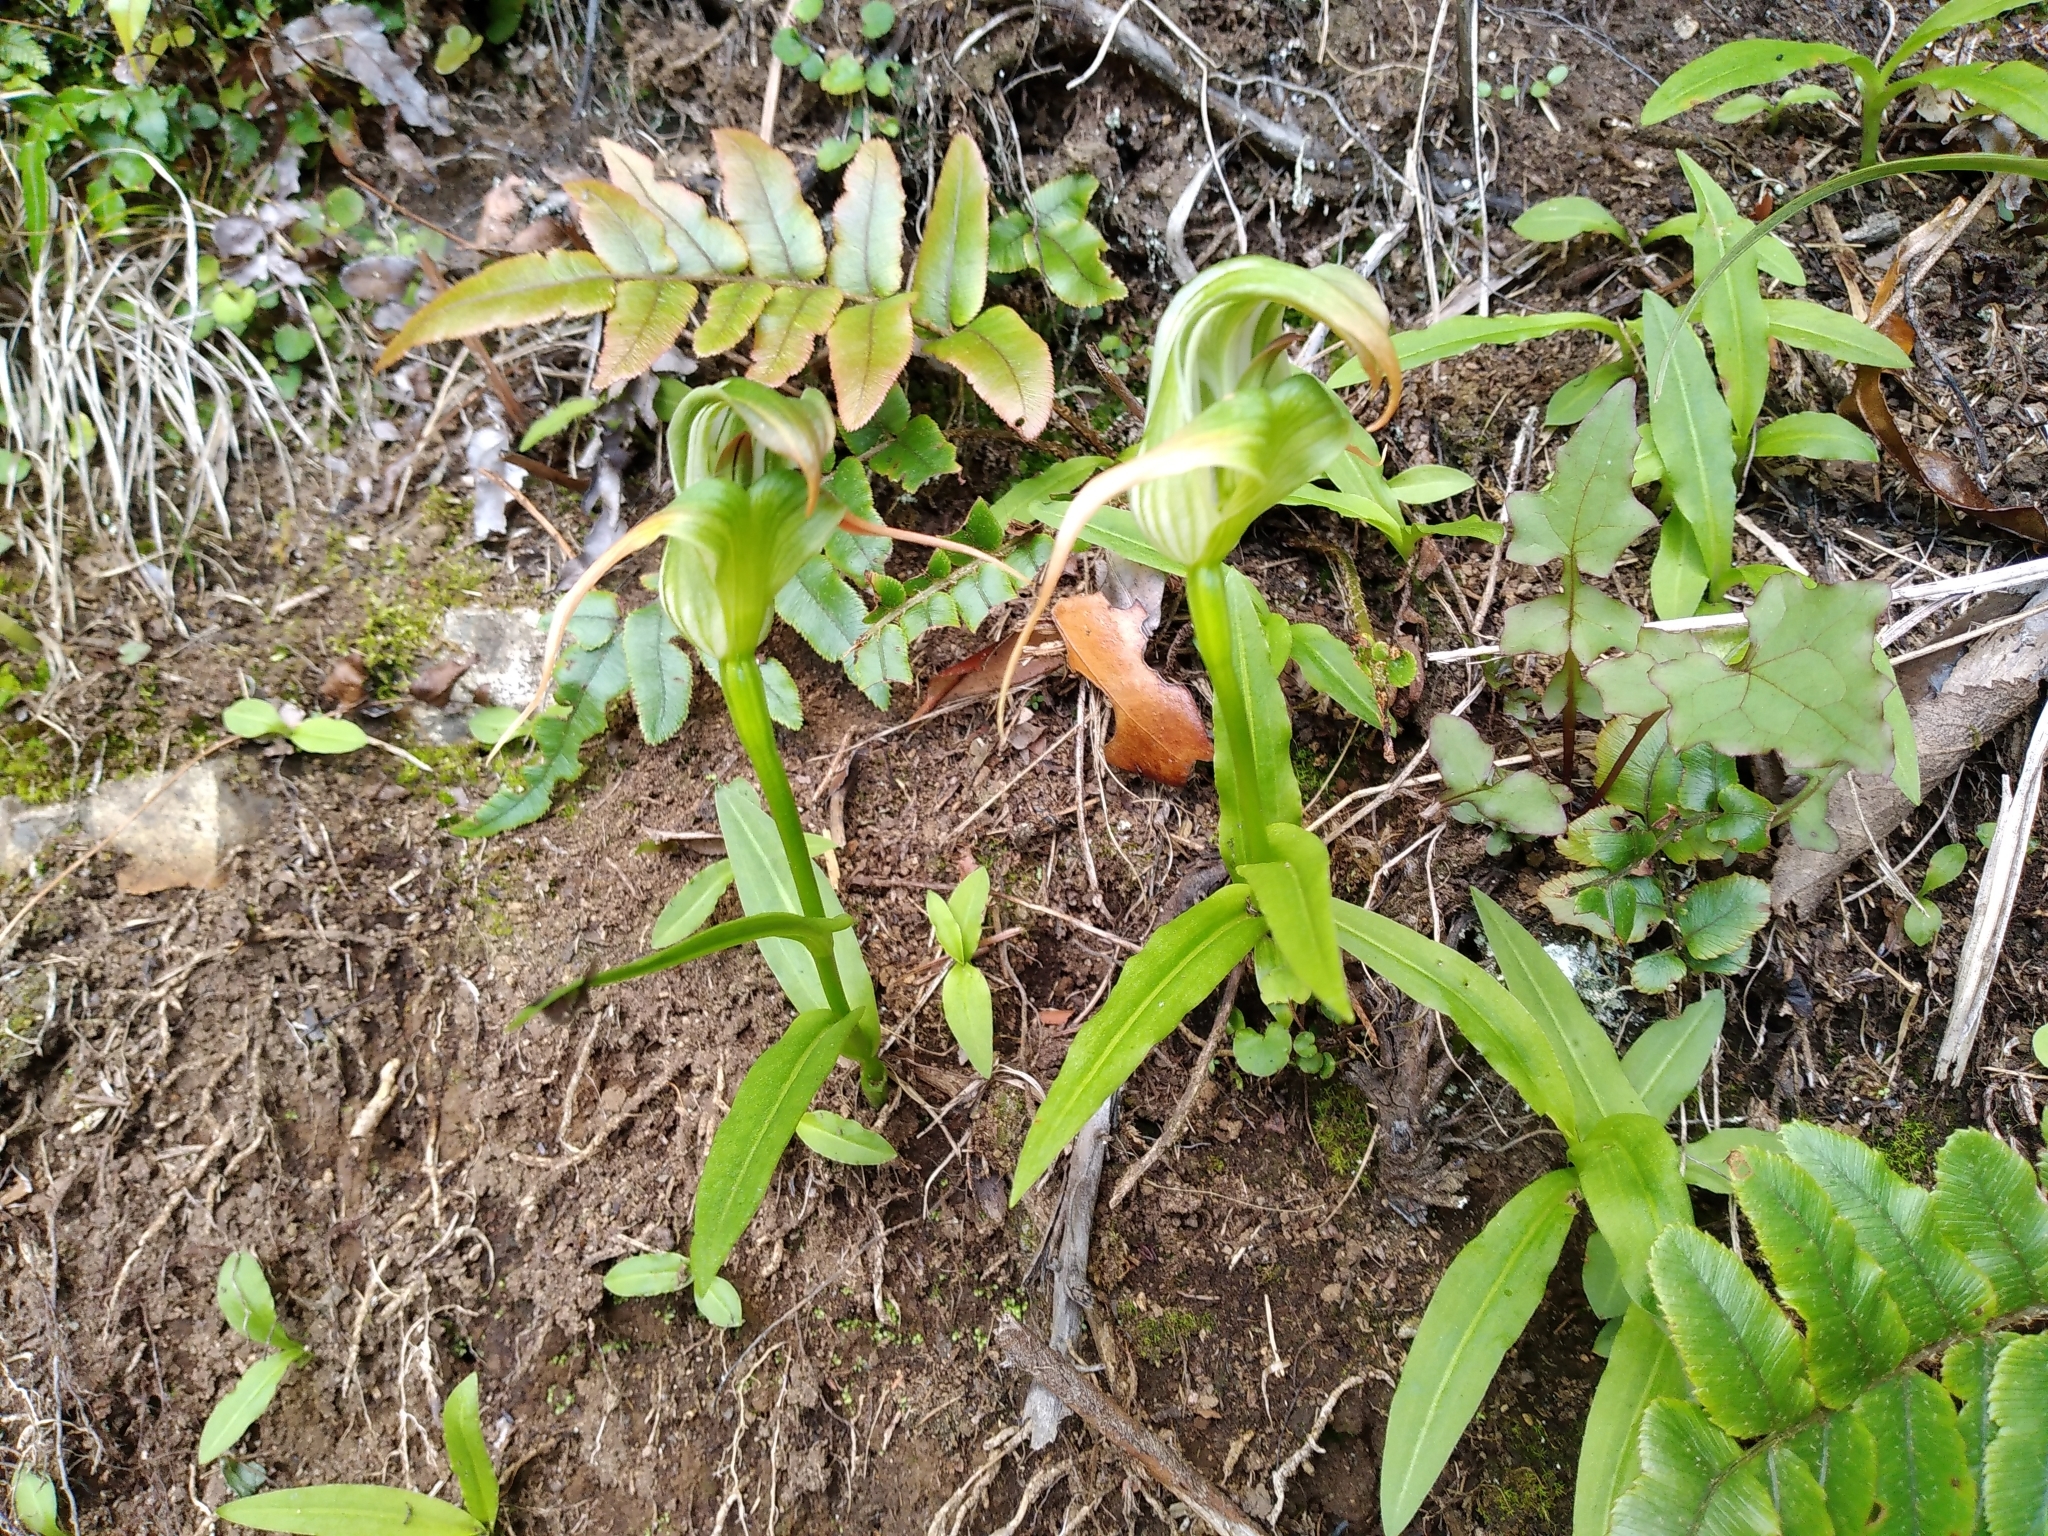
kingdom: Plantae
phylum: Tracheophyta
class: Liliopsida
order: Asparagales
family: Orchidaceae
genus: Pterostylis
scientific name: Pterostylis patens
